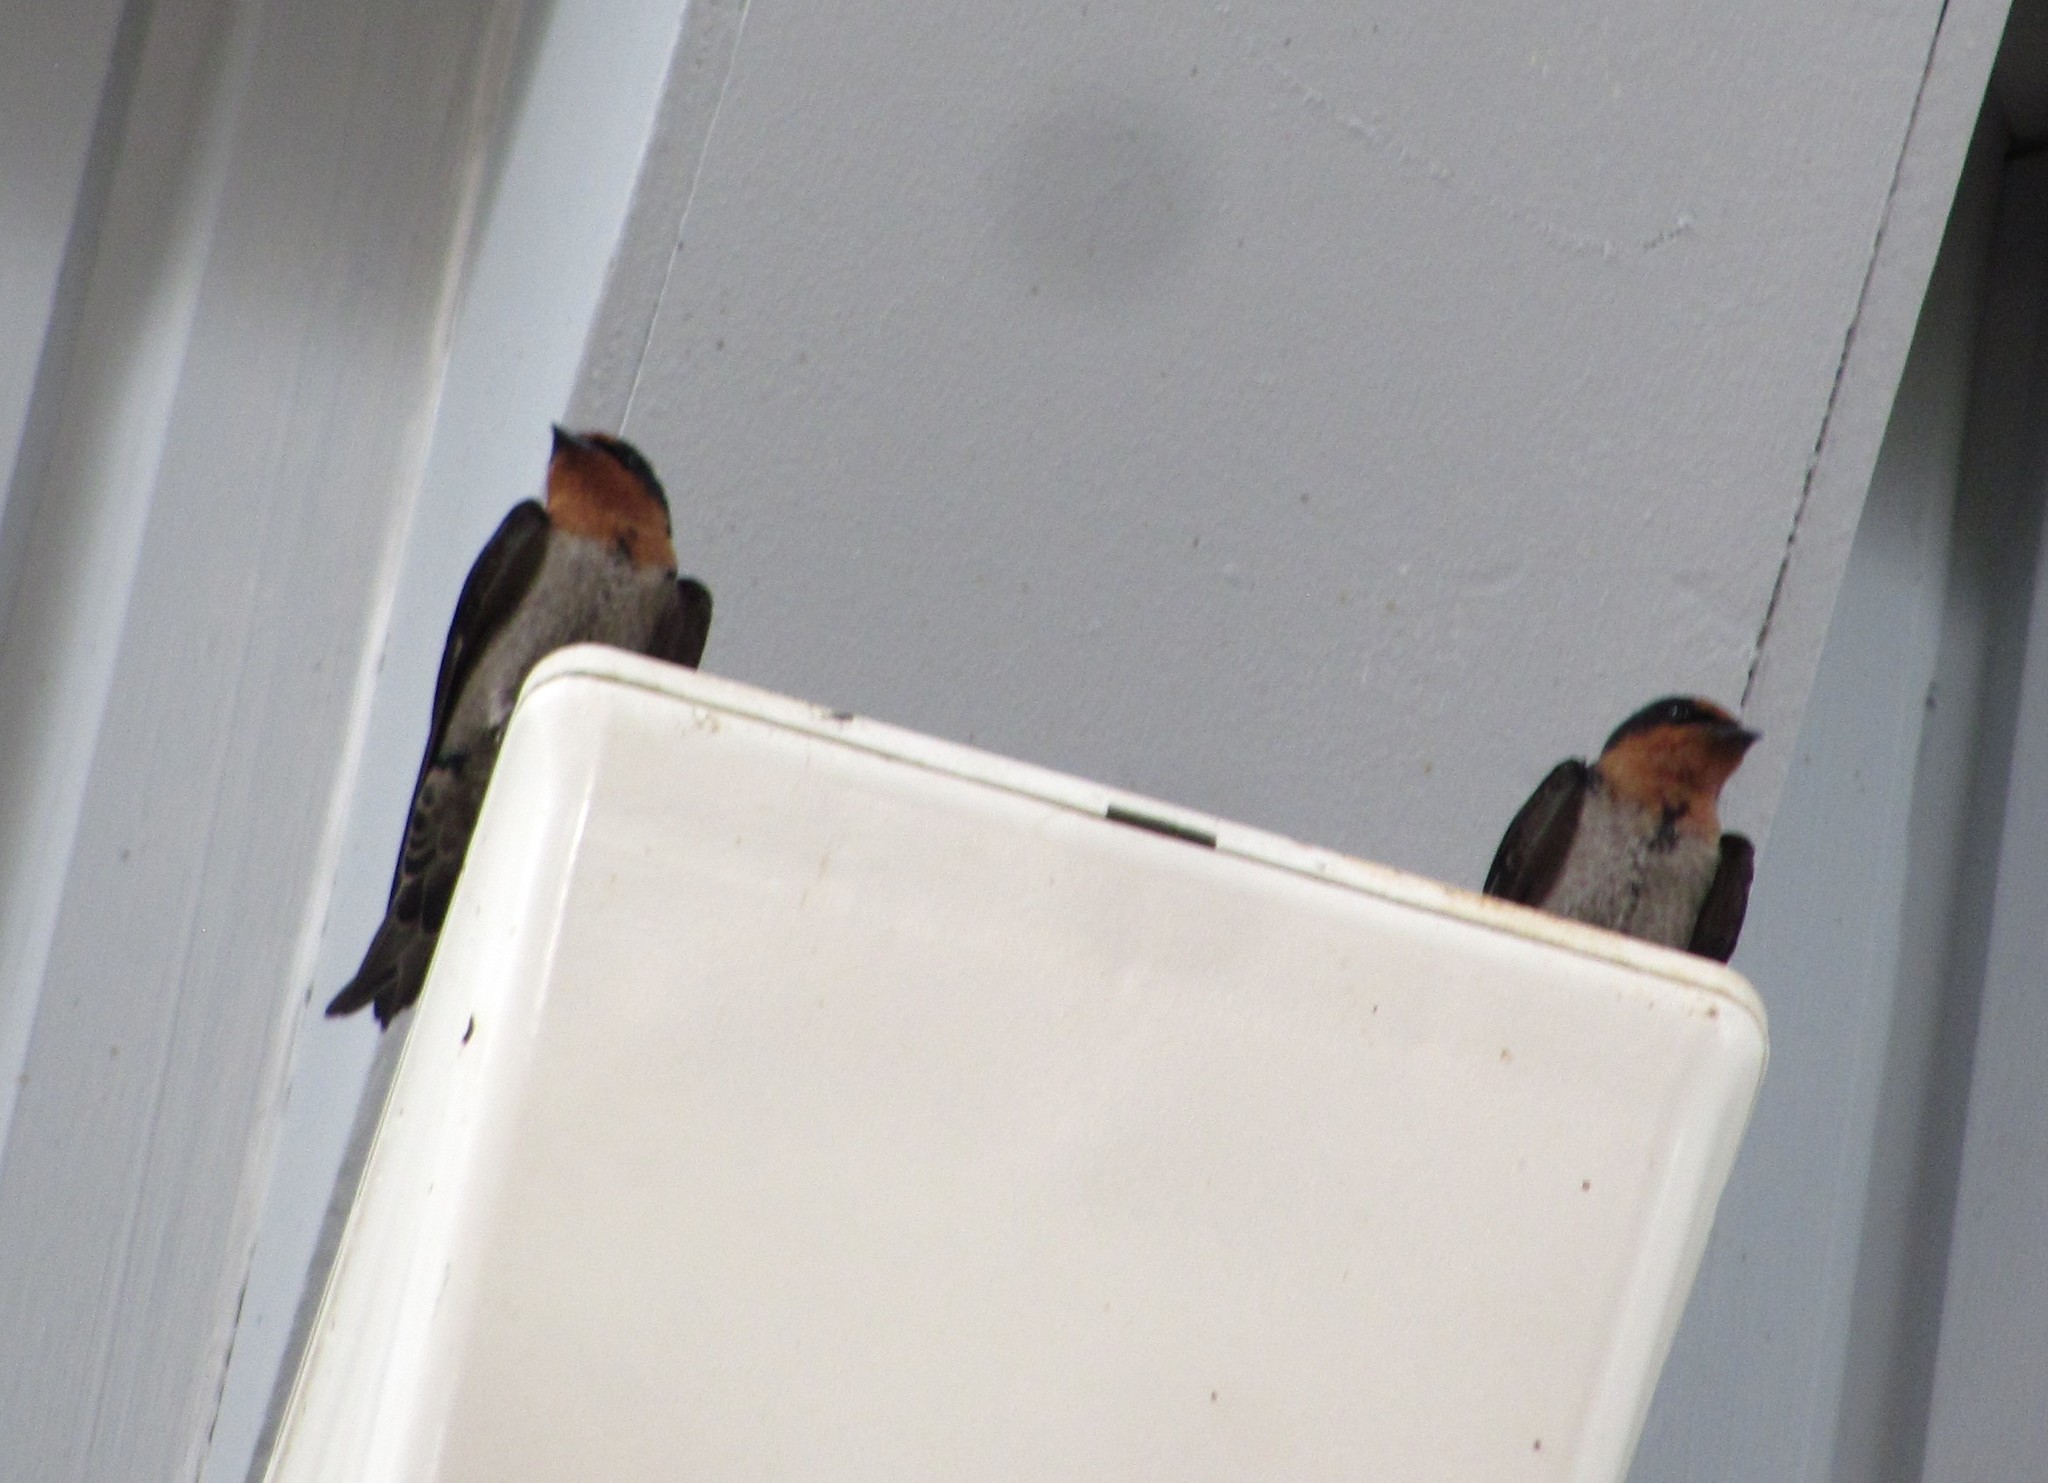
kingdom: Animalia
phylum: Chordata
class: Aves
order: Passeriformes
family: Hirundinidae
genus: Hirundo
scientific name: Hirundo tahitica
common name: Pacific swallow
